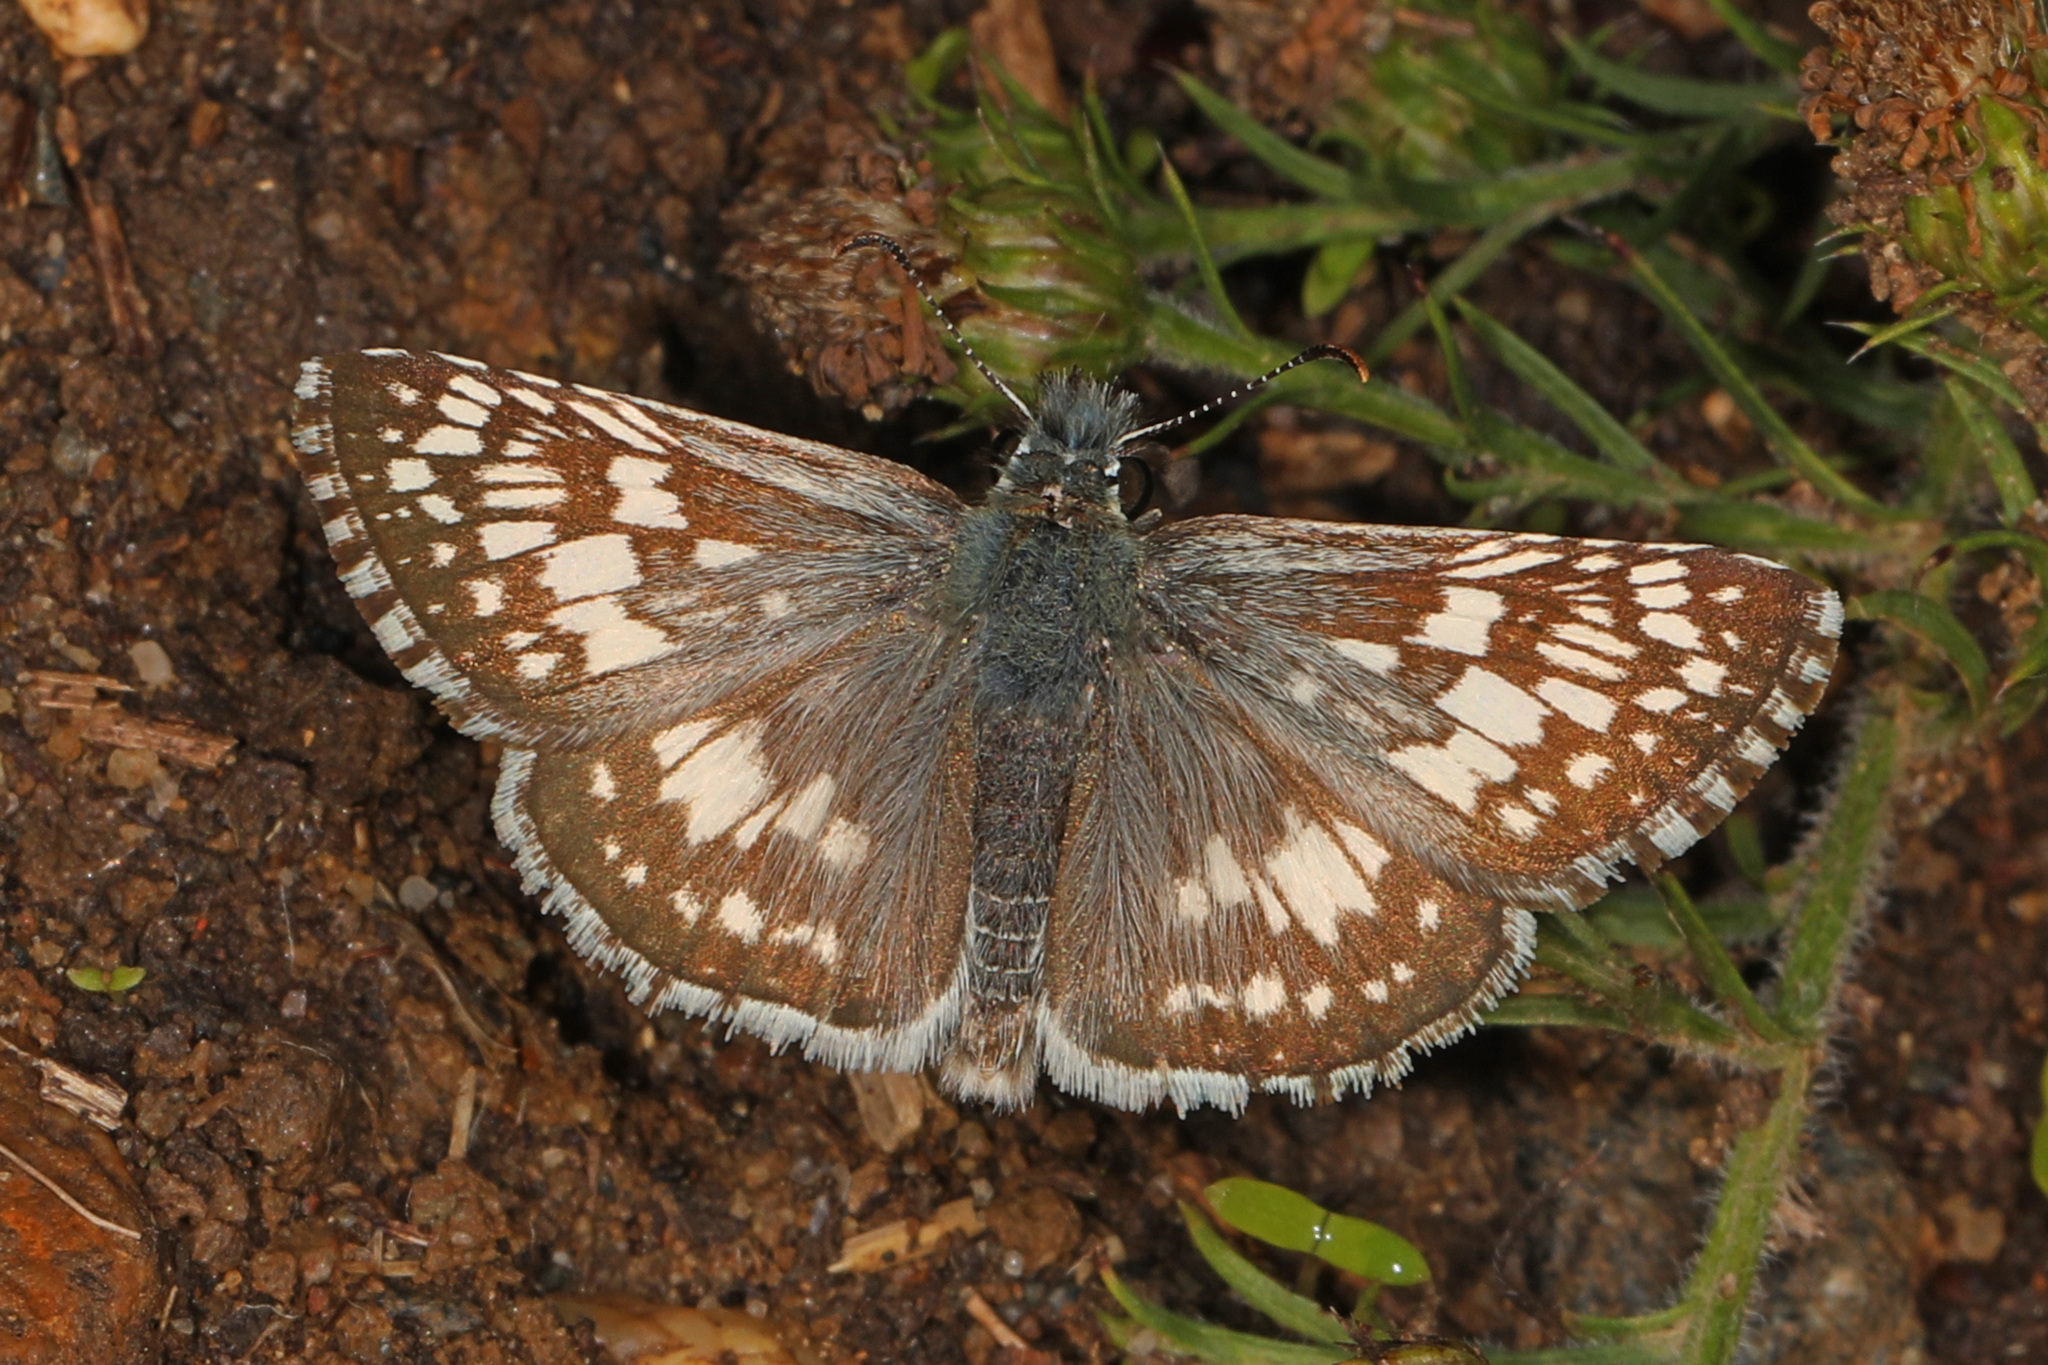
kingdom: Animalia
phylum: Arthropoda
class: Insecta
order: Lepidoptera
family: Hesperiidae
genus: Burnsius
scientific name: Burnsius communis
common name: Common checkered-skipper
